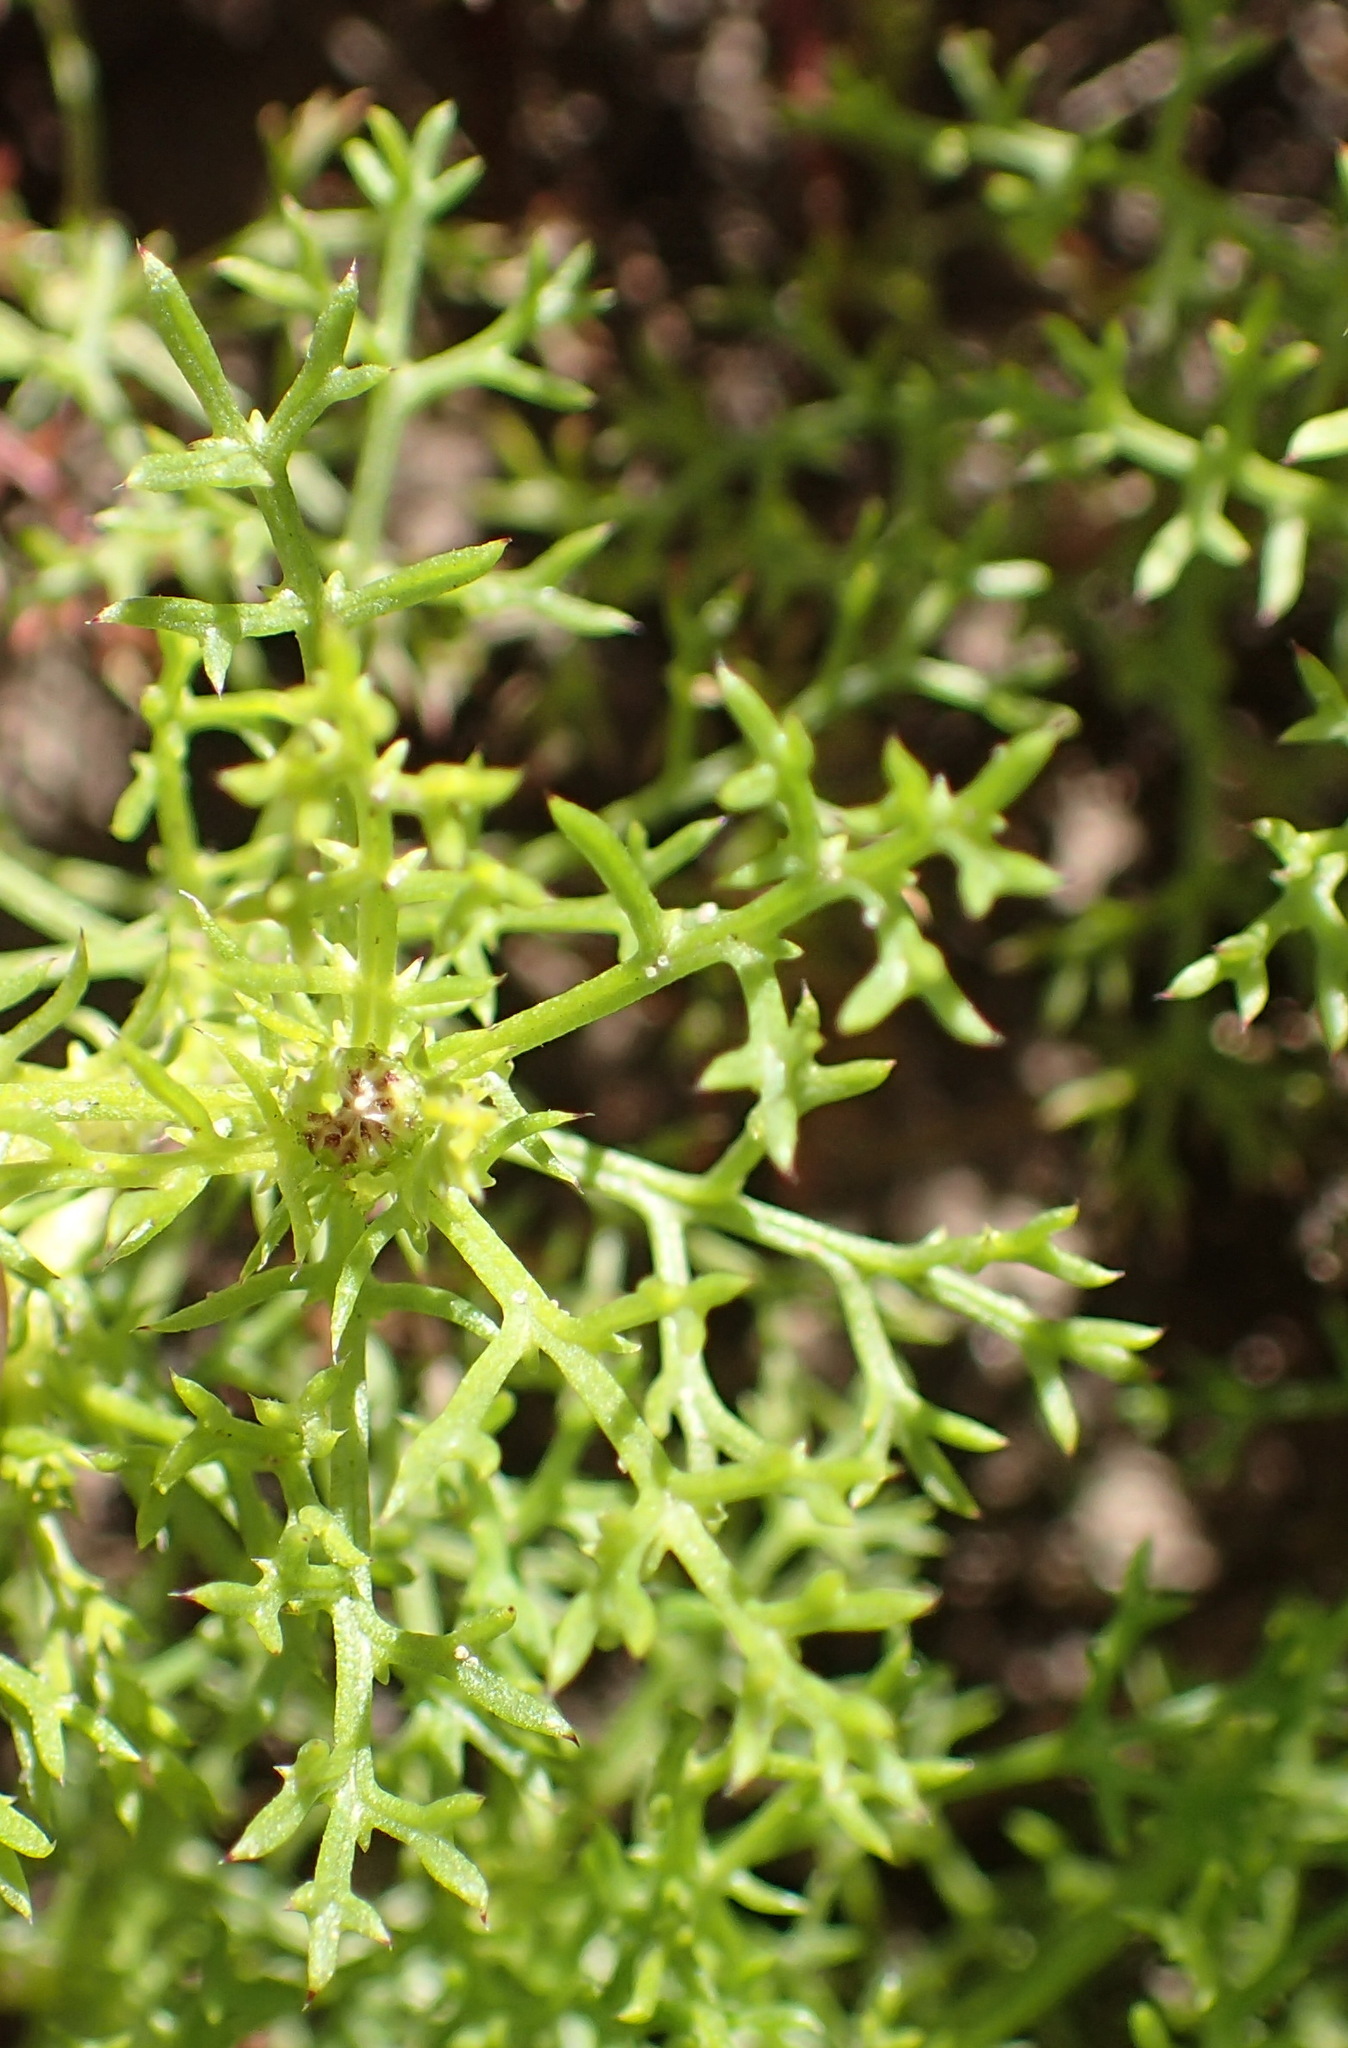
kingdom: Plantae
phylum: Tracheophyta
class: Magnoliopsida
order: Asterales
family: Asteraceae
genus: Ursinia
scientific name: Ursinia chrysanthemoides
